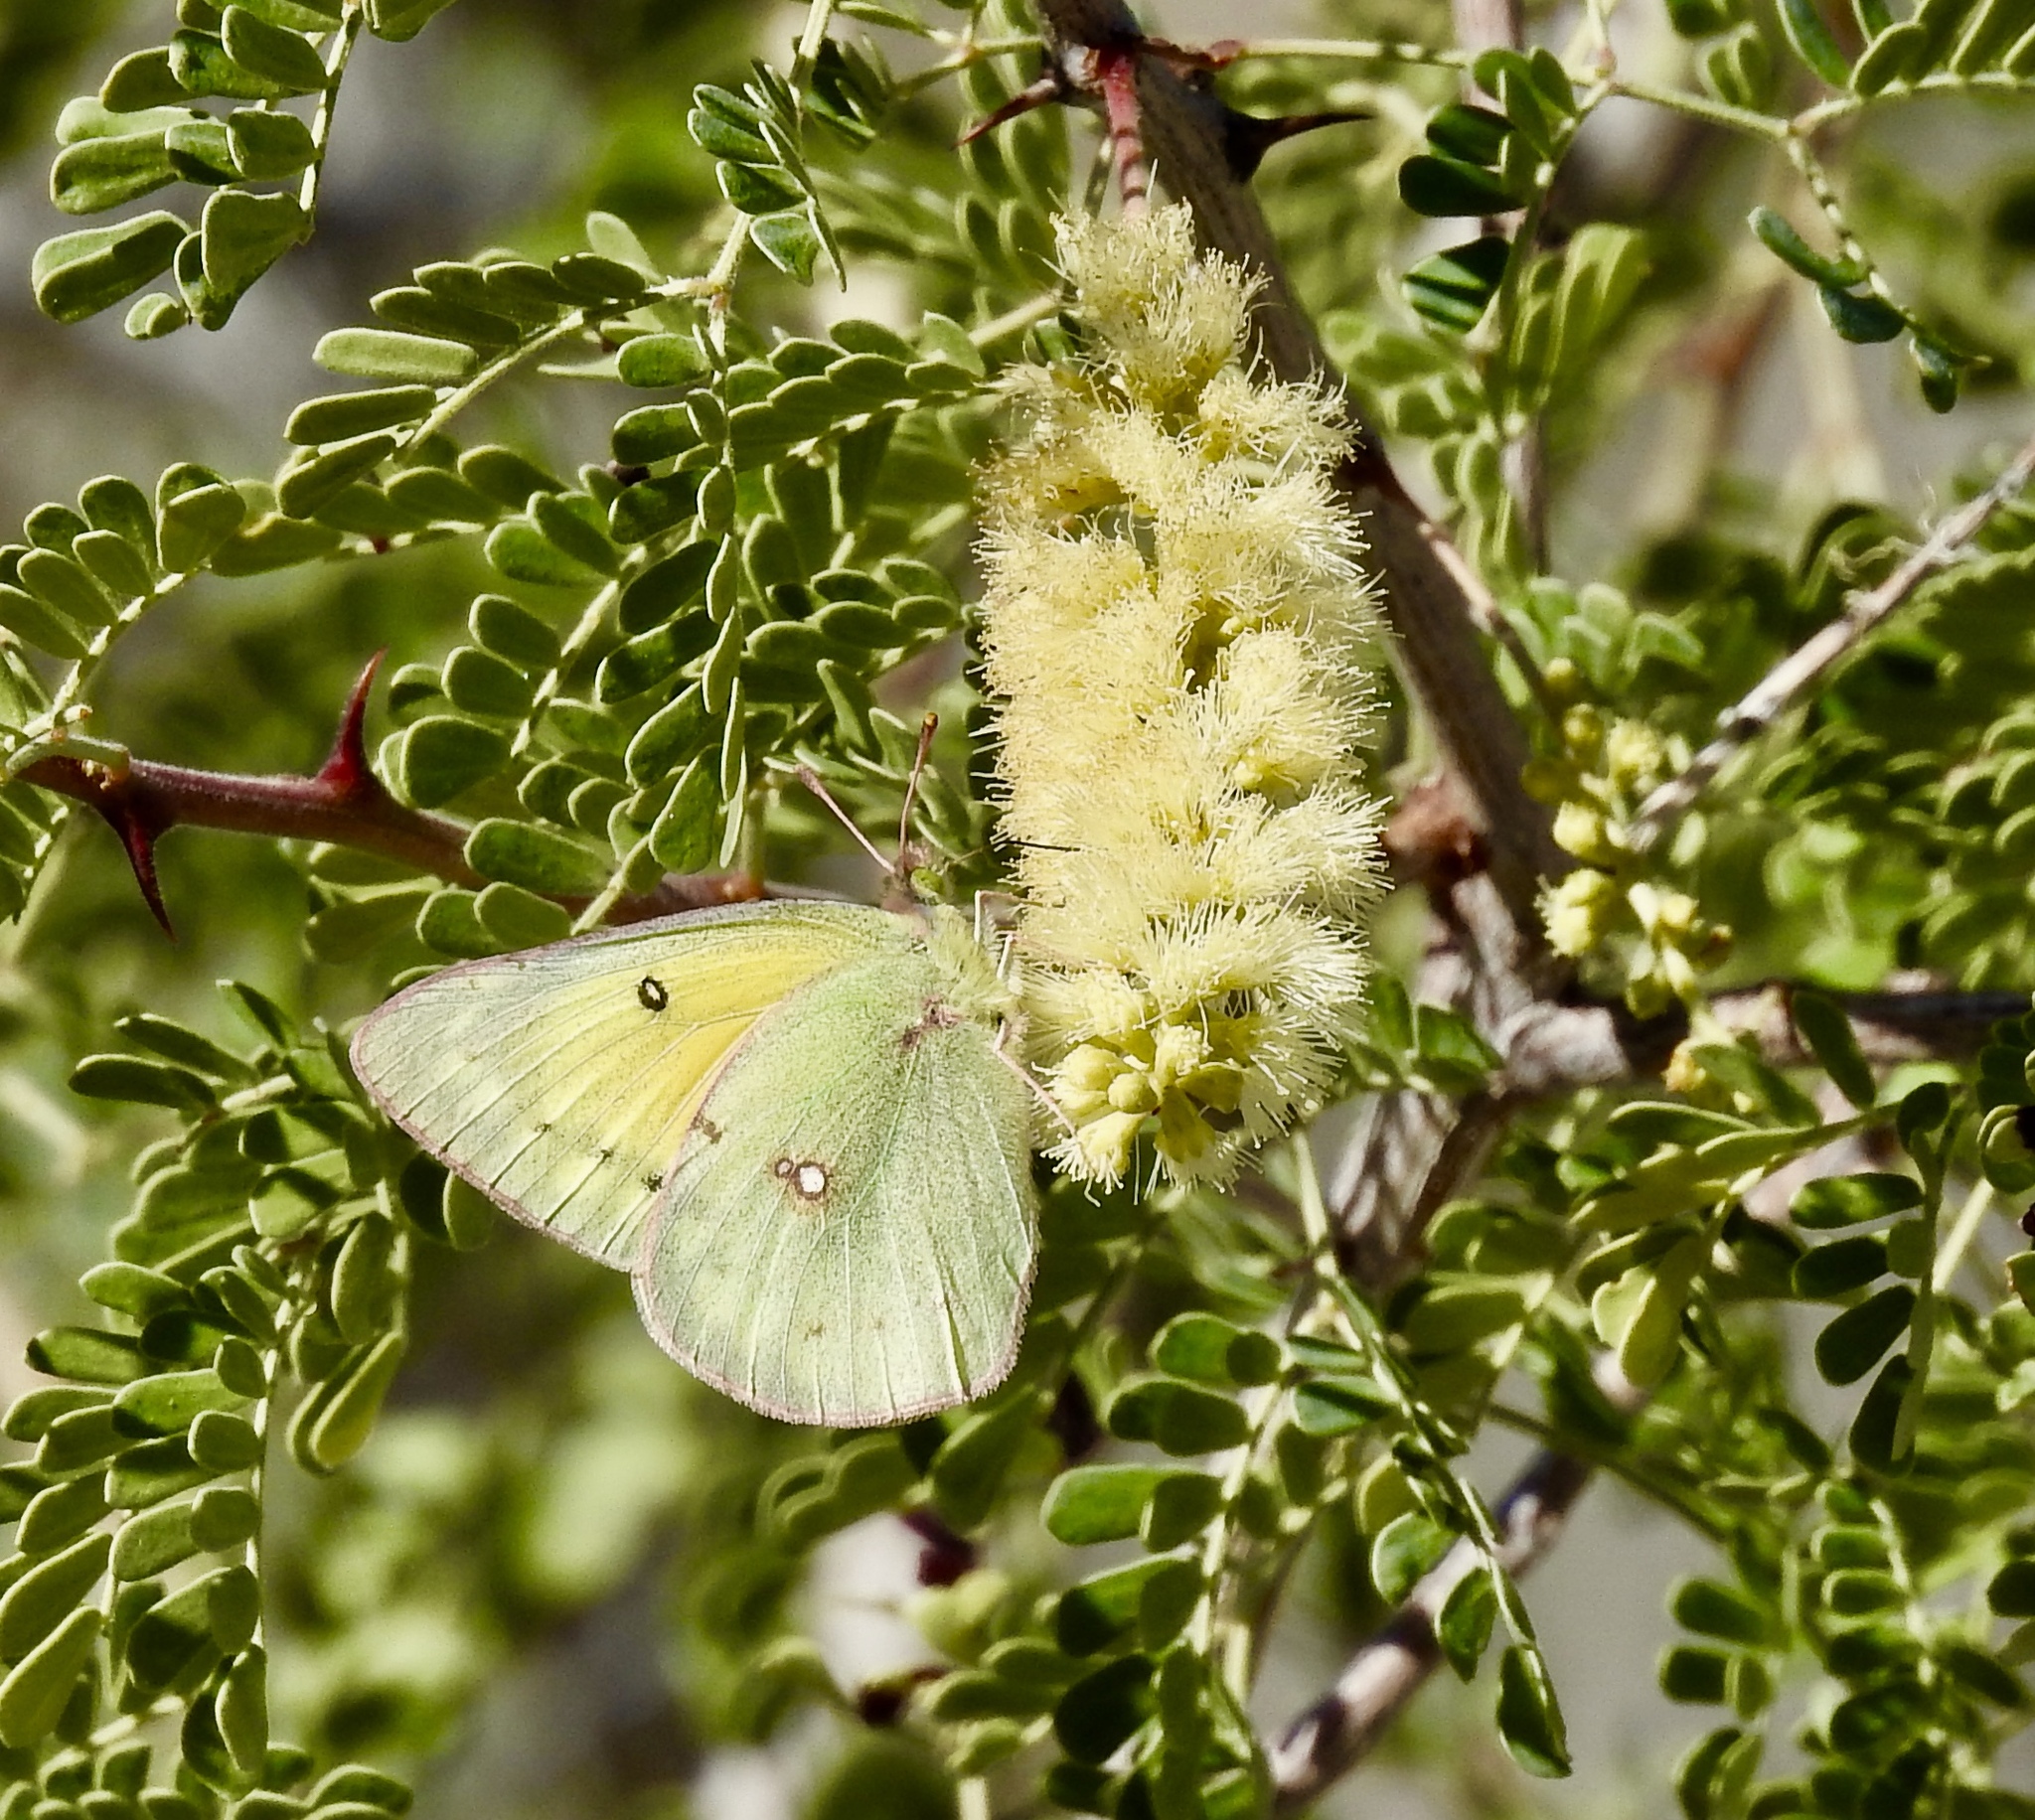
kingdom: Animalia
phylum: Arthropoda
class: Insecta
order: Lepidoptera
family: Pieridae
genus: Colias
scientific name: Colias eurytheme
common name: Alfalfa butterfly
